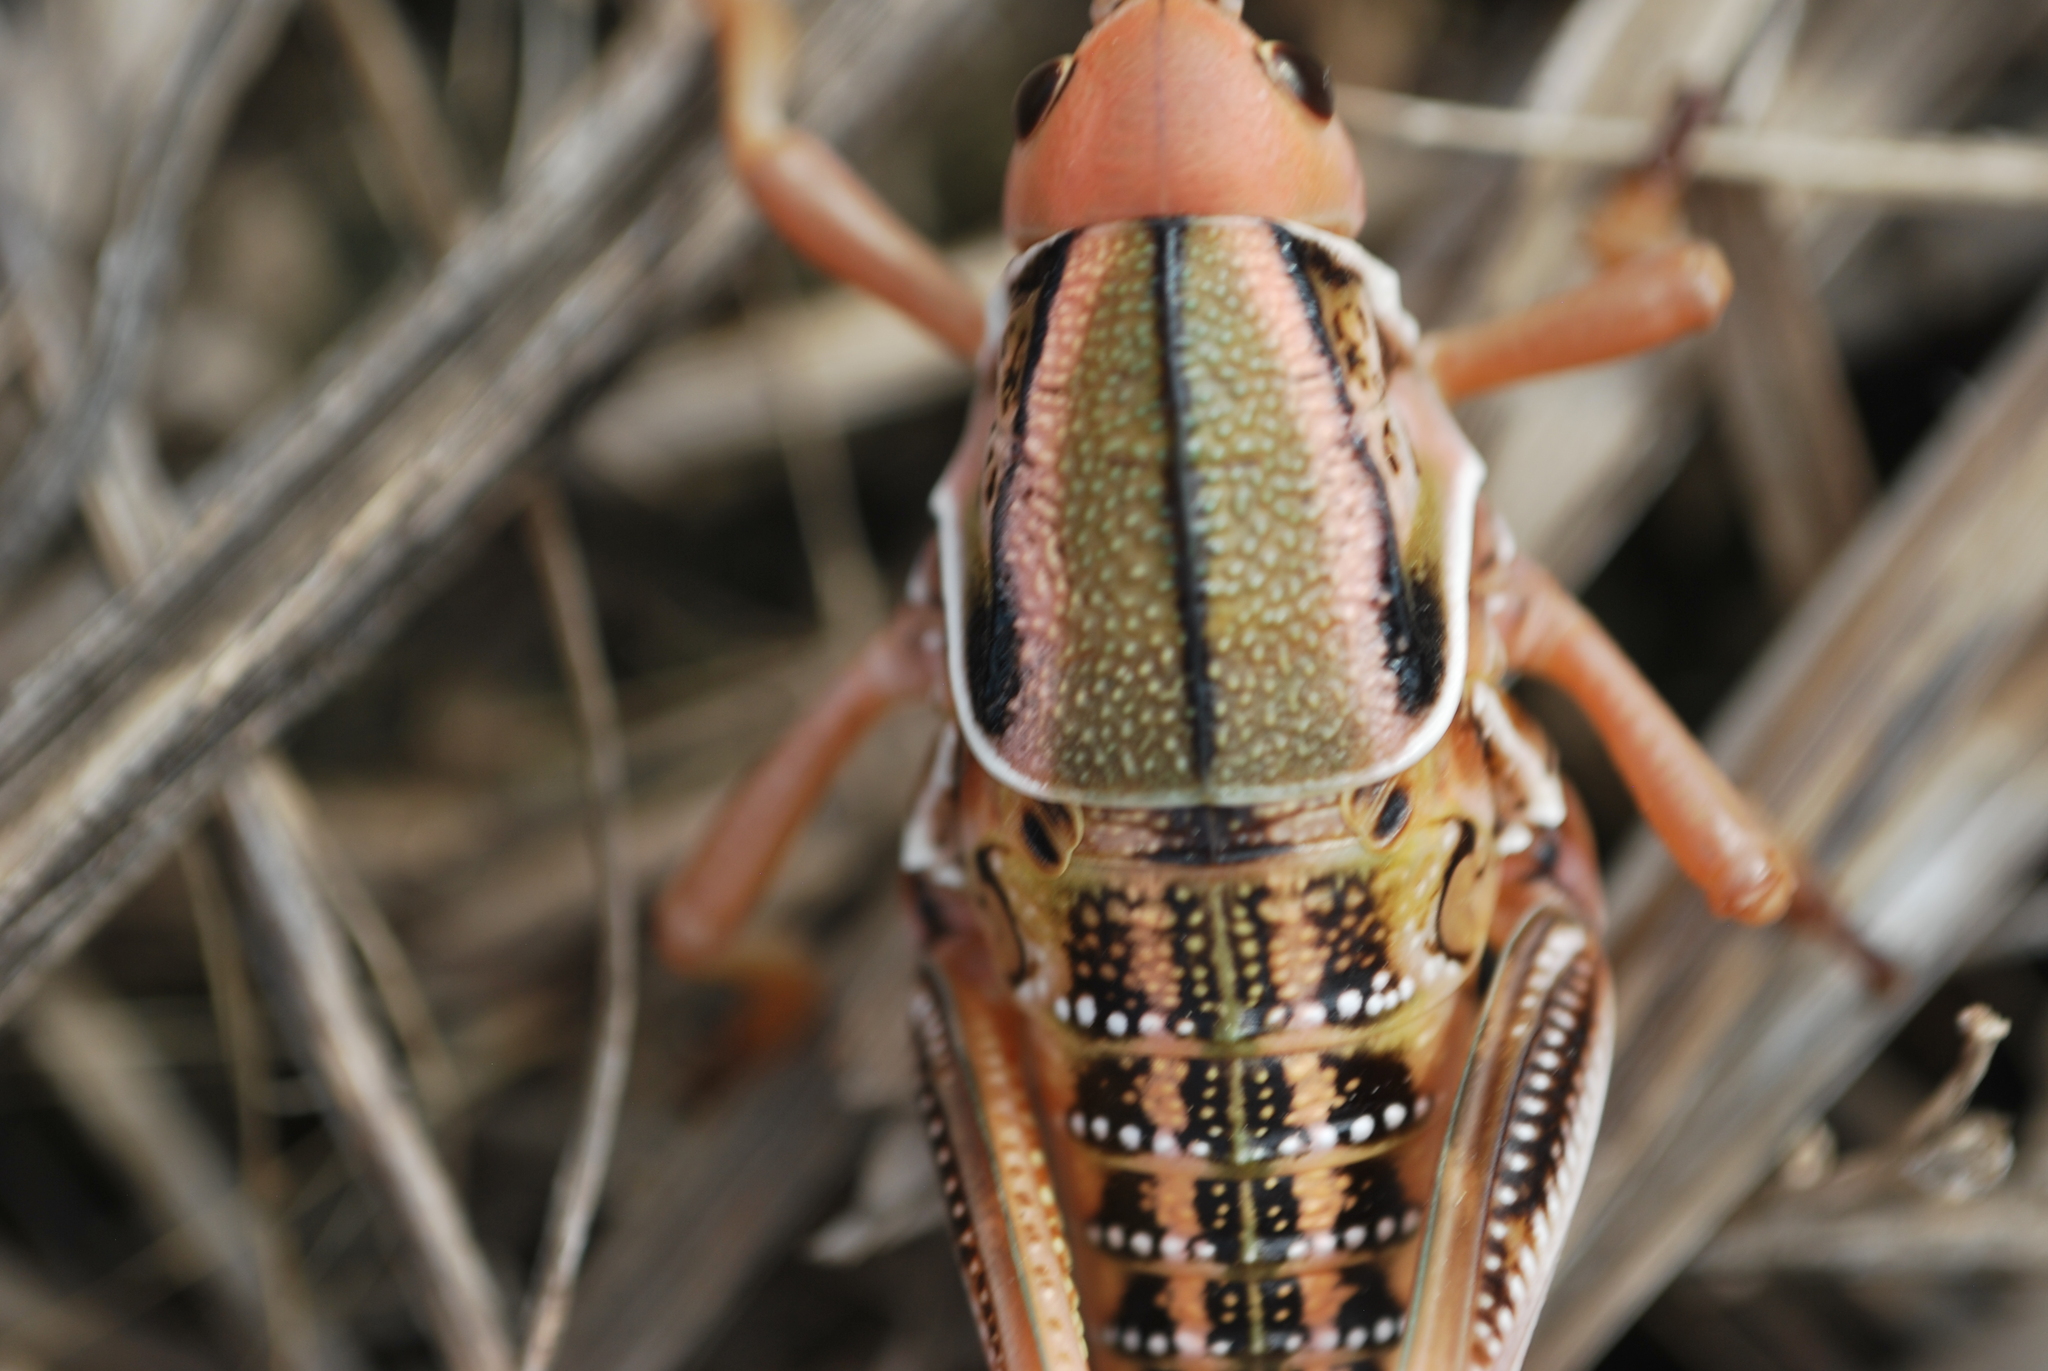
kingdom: Animalia
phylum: Arthropoda
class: Insecta
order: Orthoptera
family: Romaleidae
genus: Brachystola
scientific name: Brachystola magna
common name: Plains lubber grasshopper
